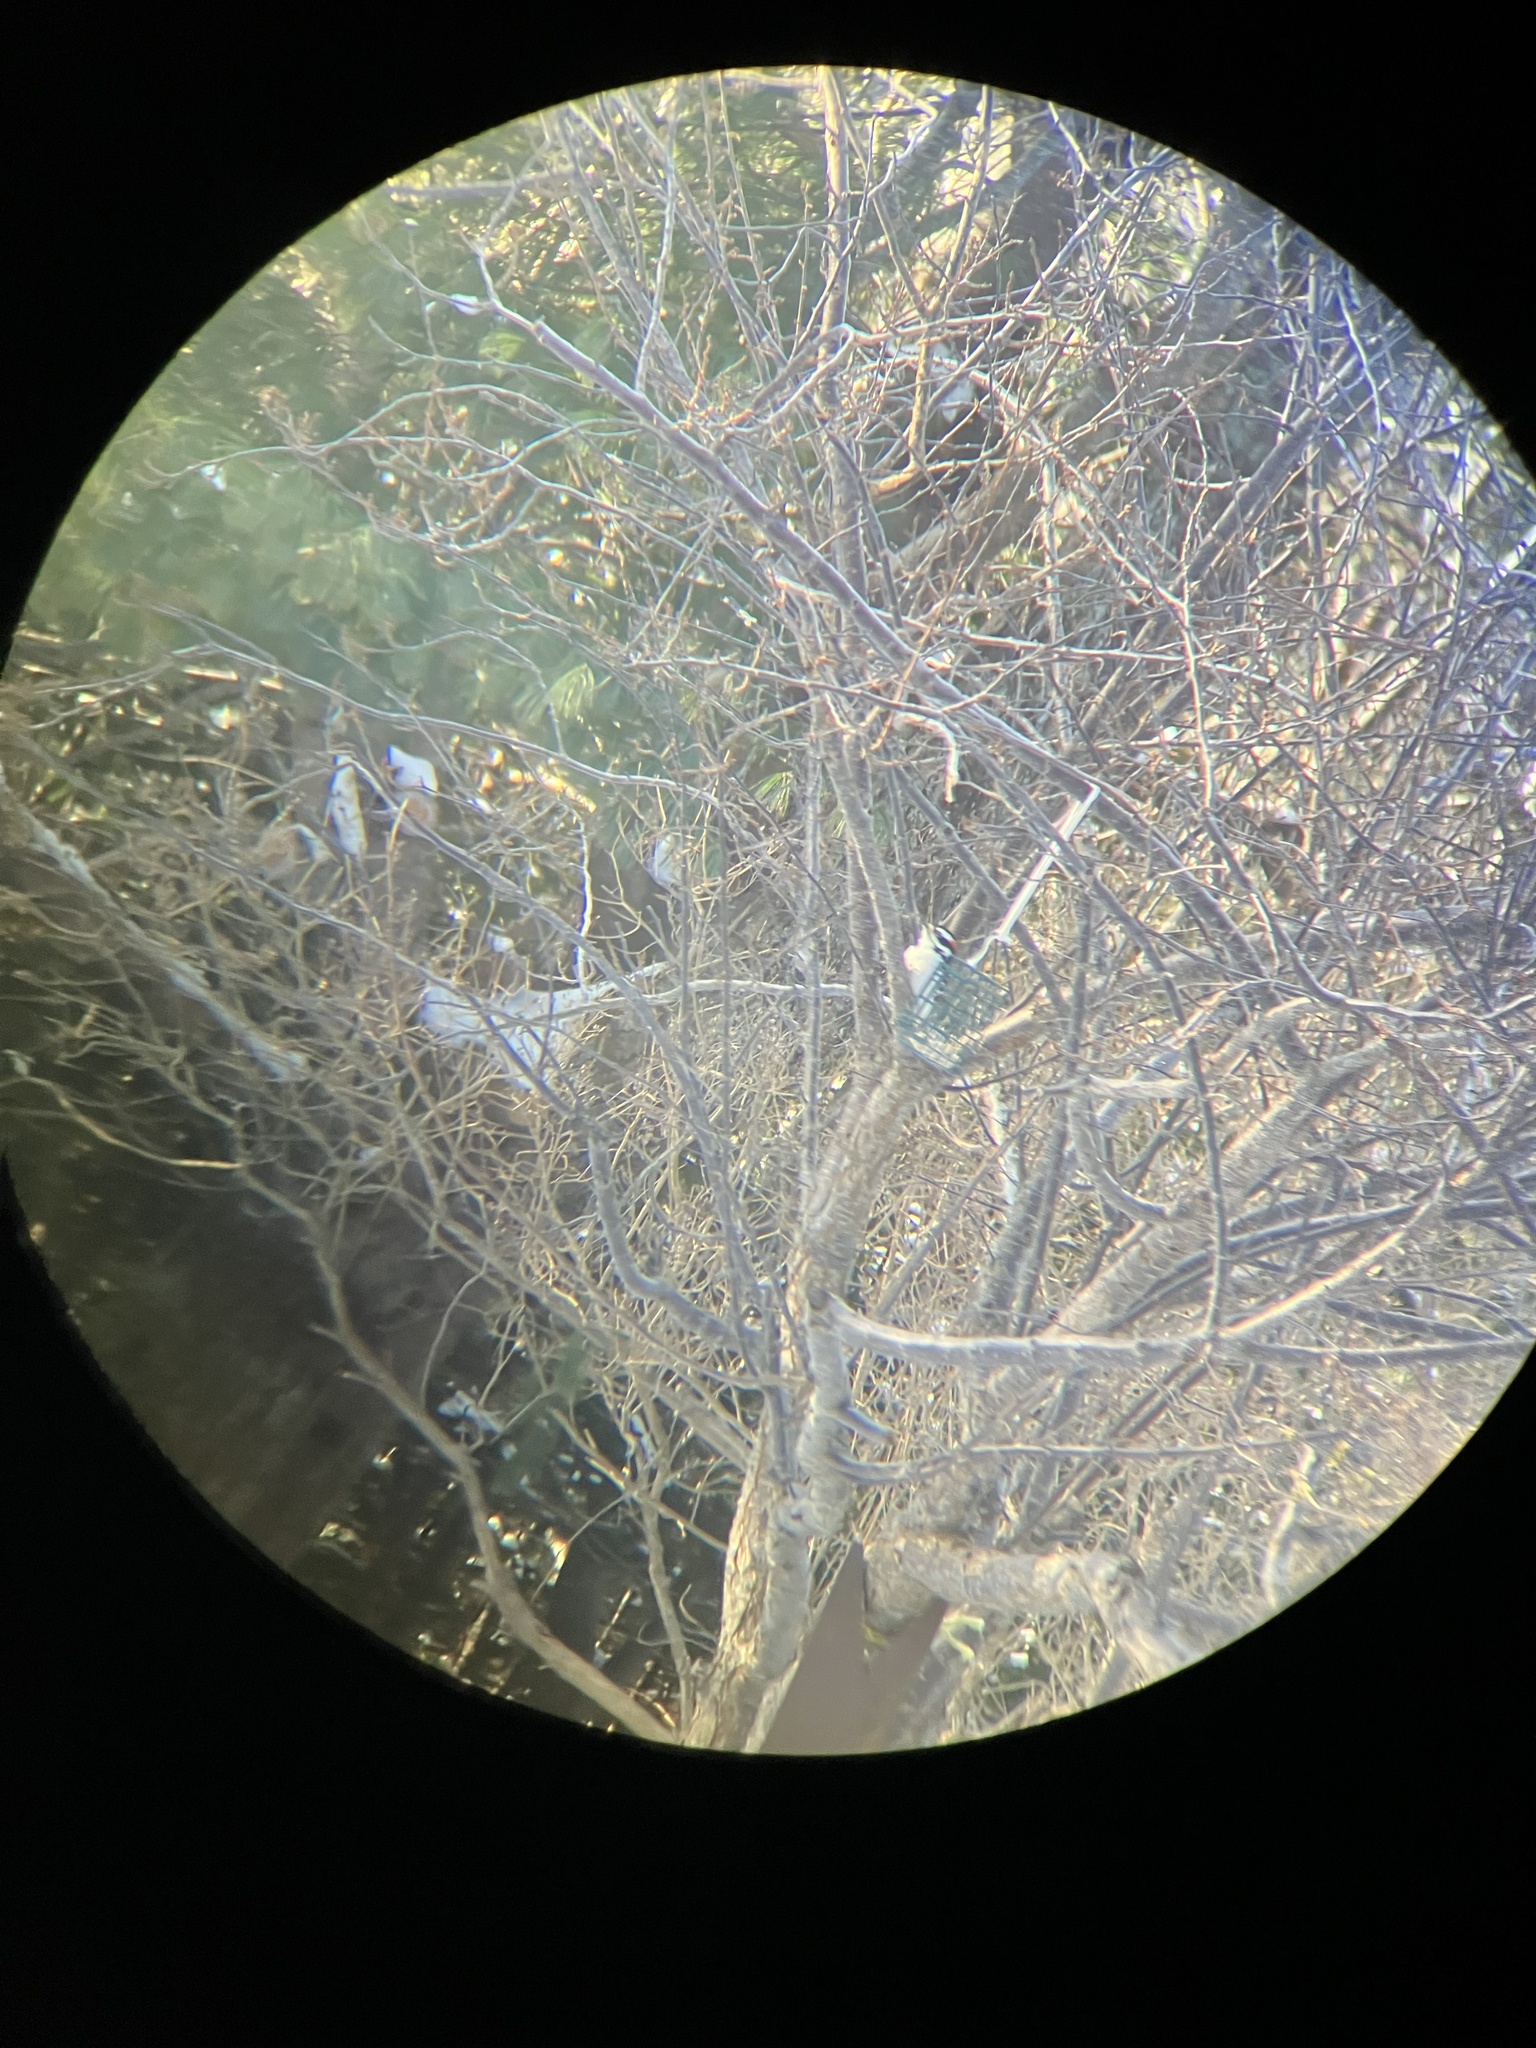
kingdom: Animalia
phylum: Chordata
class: Aves
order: Piciformes
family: Picidae
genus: Leuconotopicus
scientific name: Leuconotopicus villosus
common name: Hairy woodpecker
